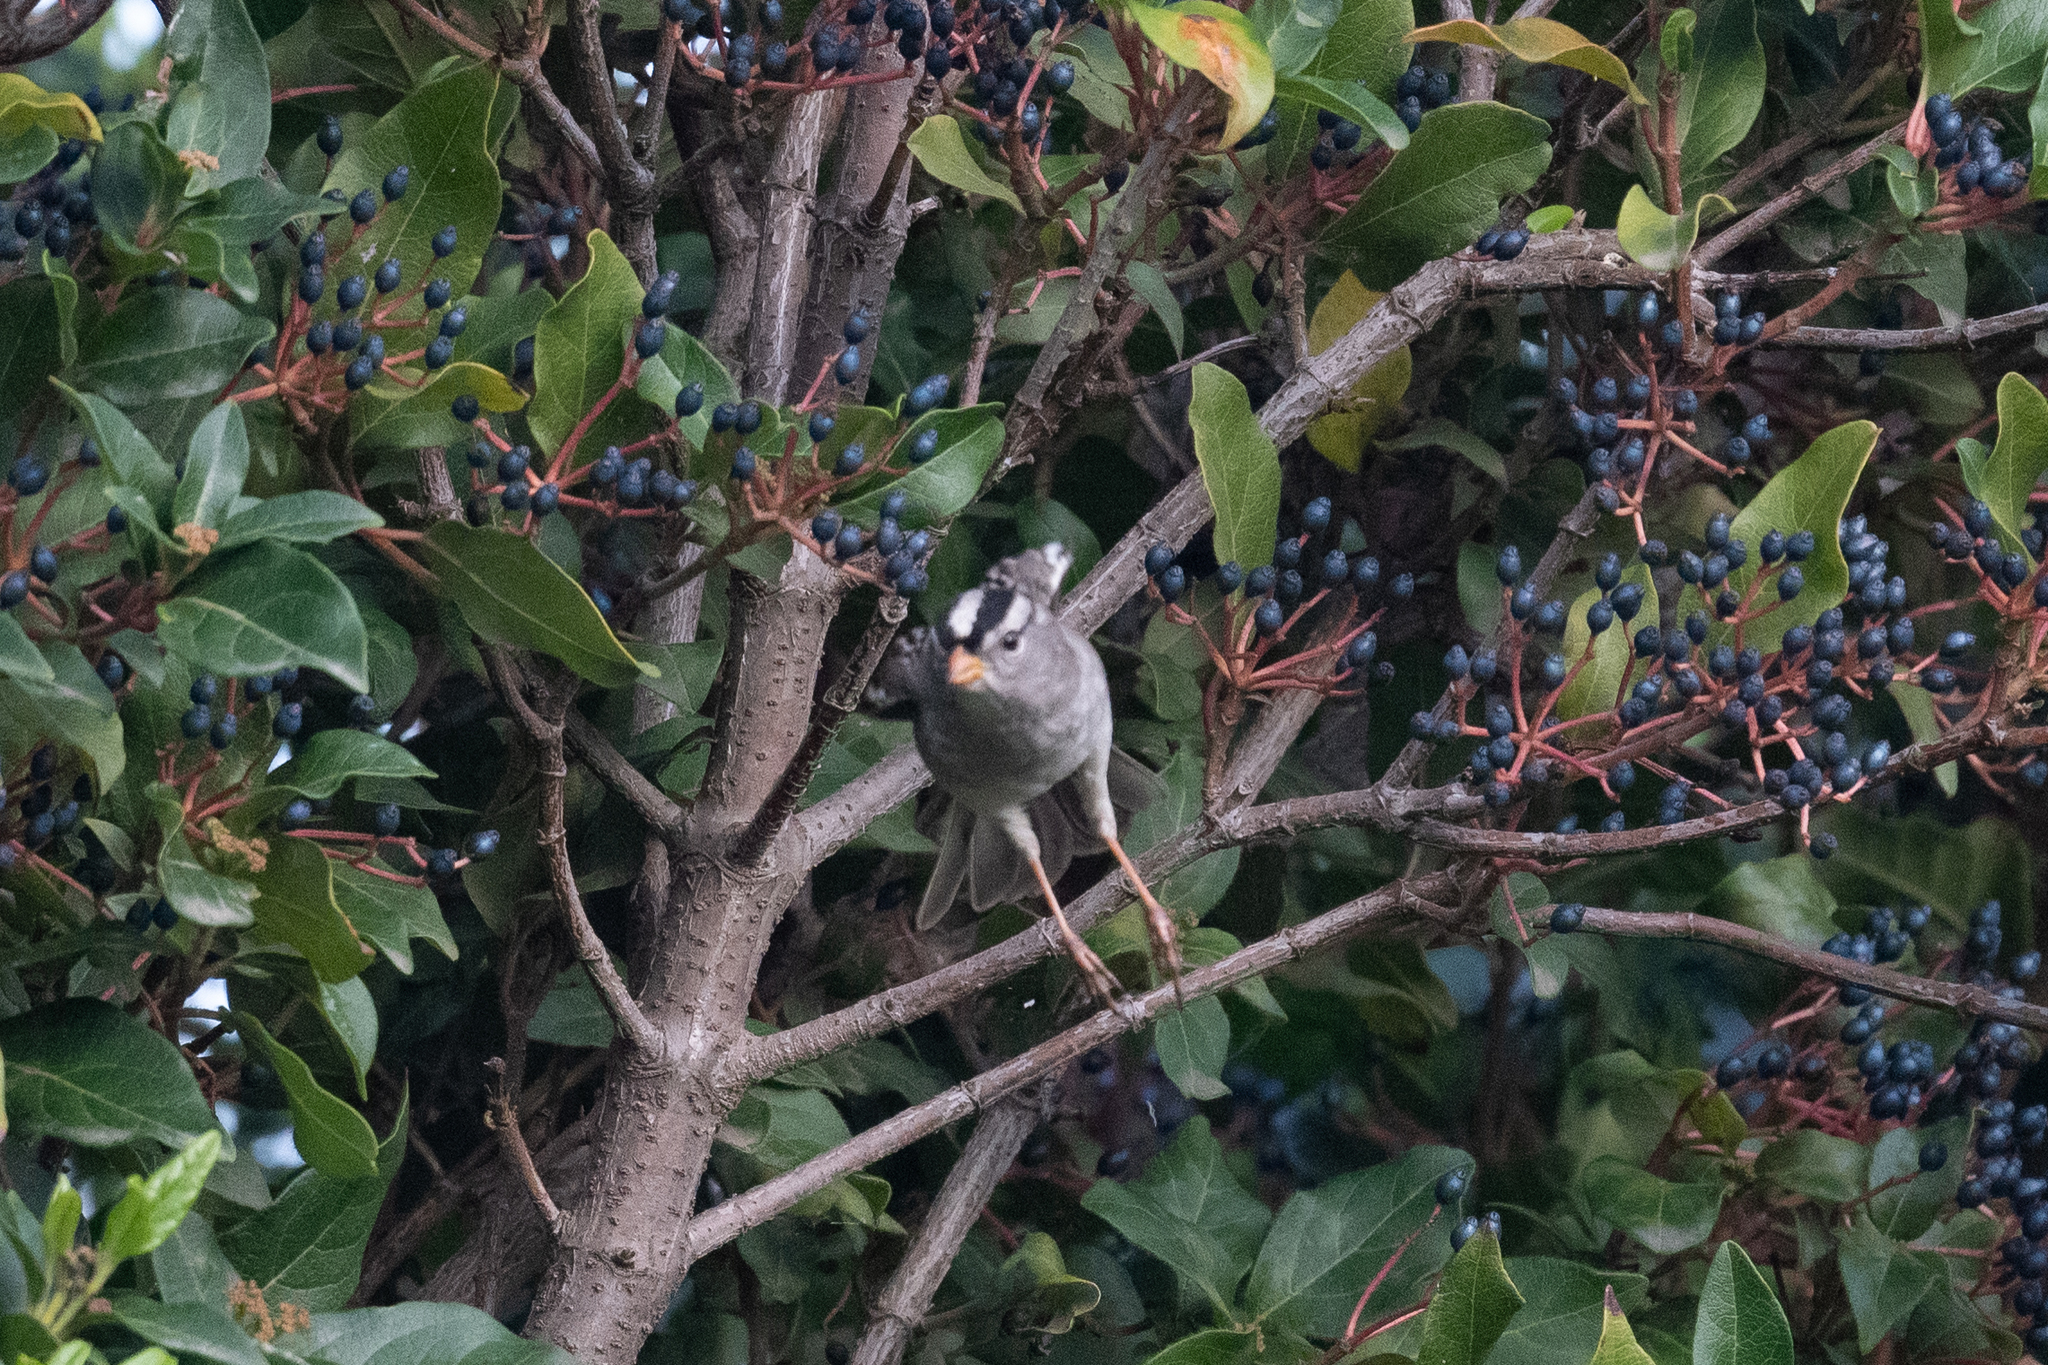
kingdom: Animalia
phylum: Chordata
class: Aves
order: Passeriformes
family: Passerellidae
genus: Zonotrichia
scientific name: Zonotrichia leucophrys
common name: White-crowned sparrow
